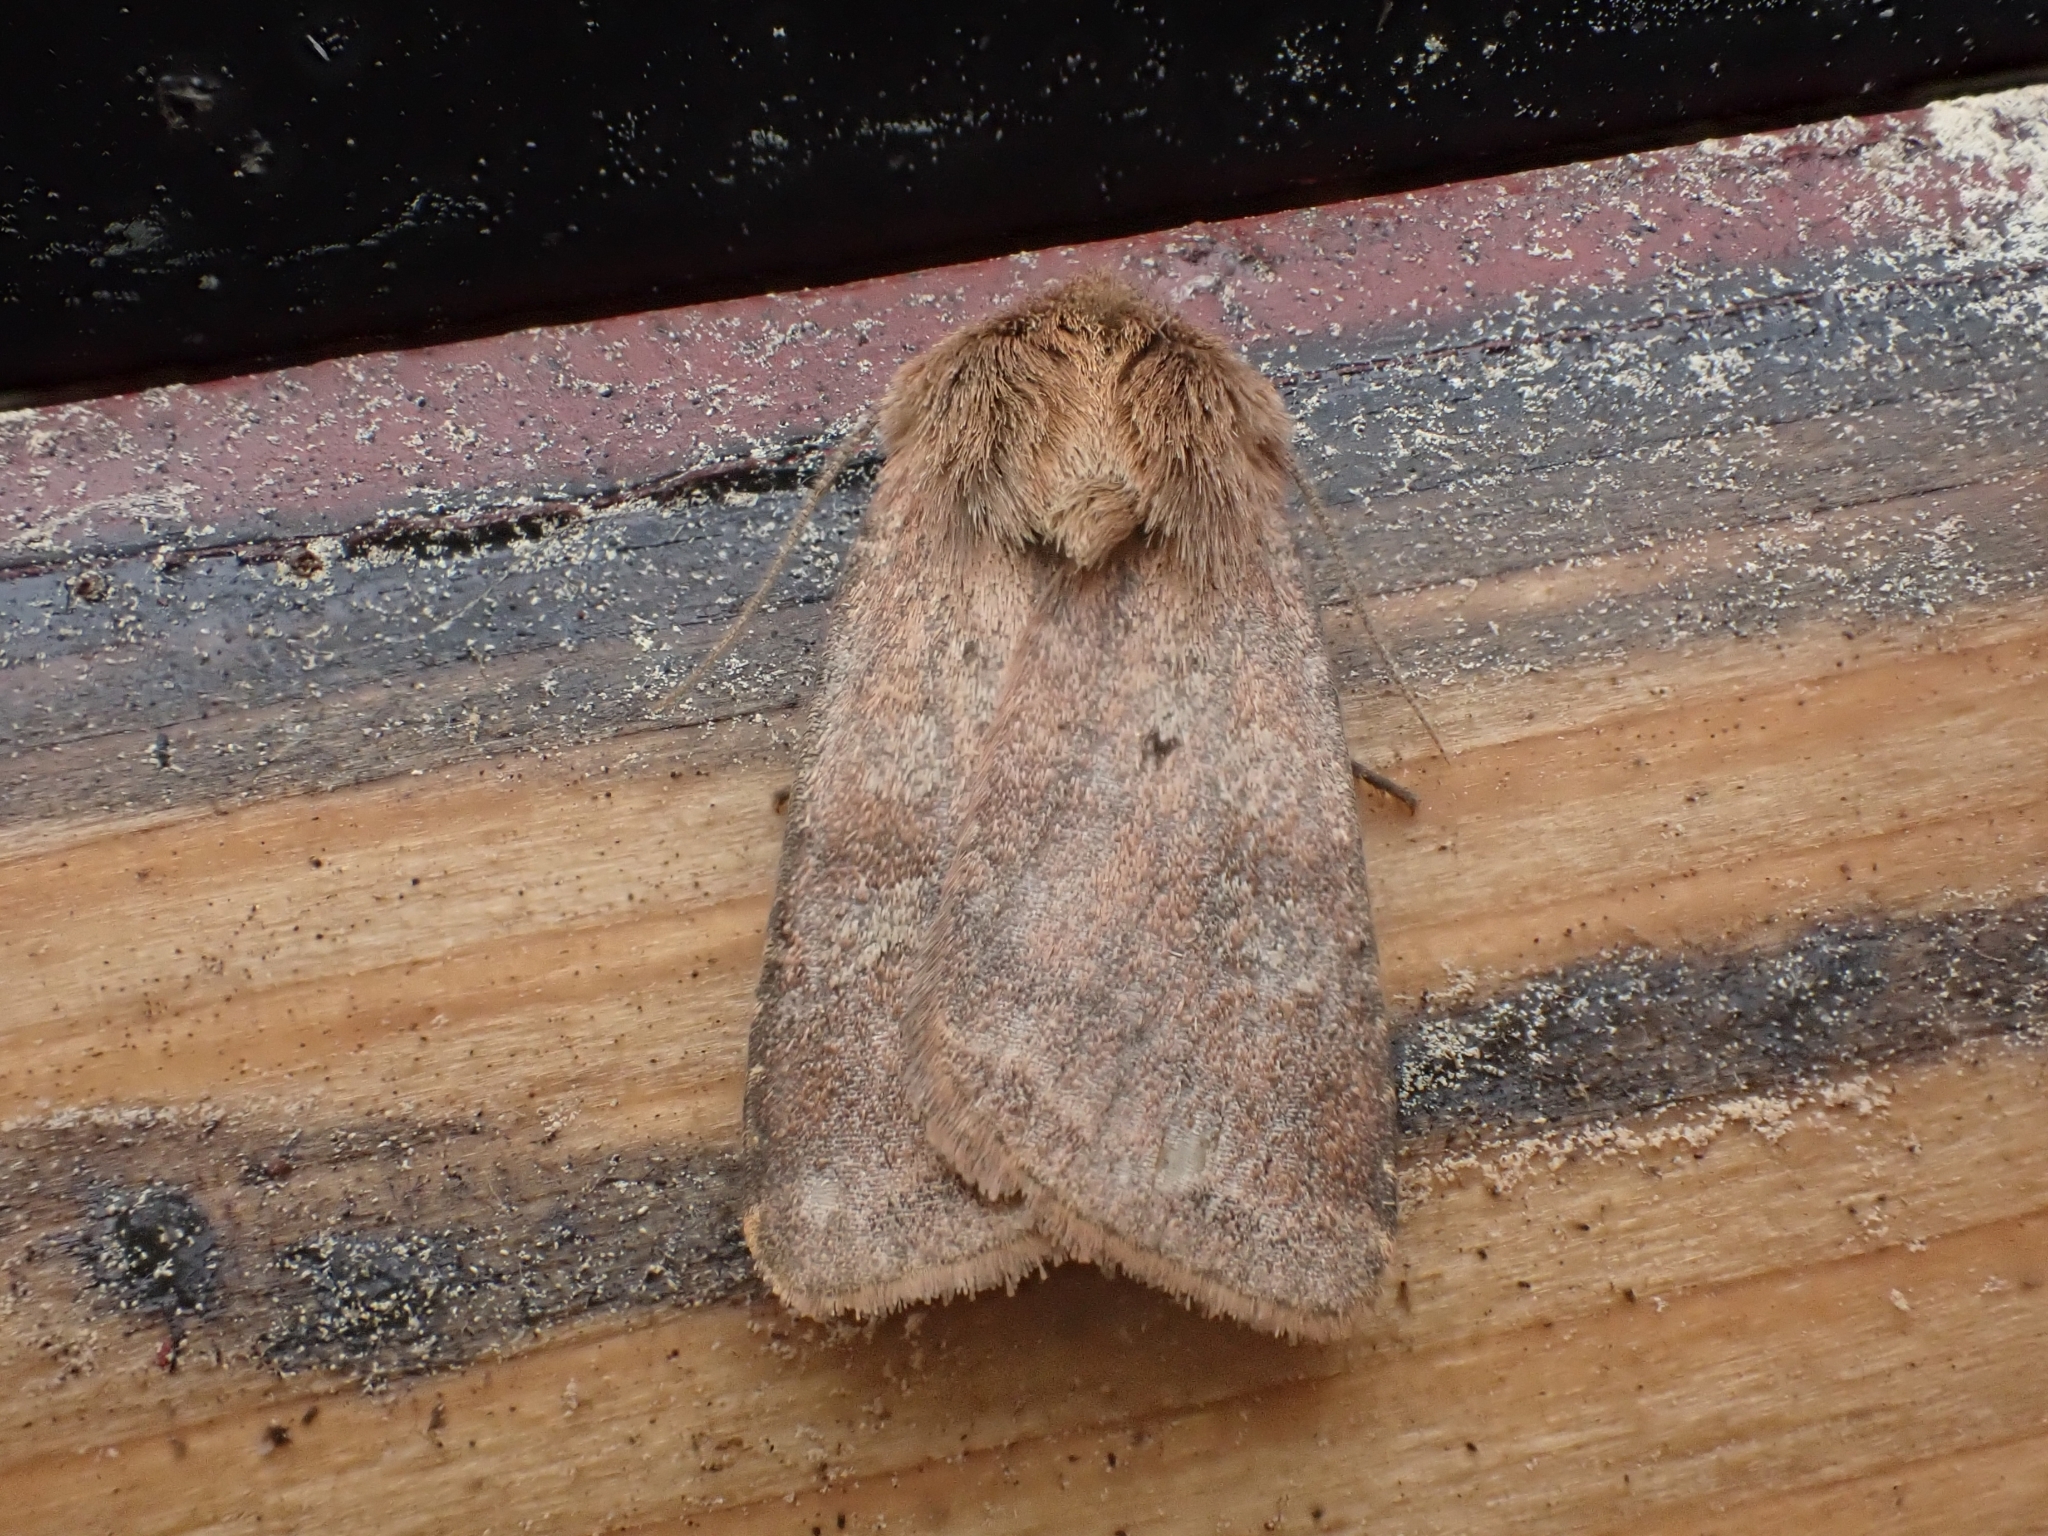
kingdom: Animalia
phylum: Arthropoda
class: Insecta
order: Lepidoptera
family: Noctuidae
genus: Diarsia
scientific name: Diarsia rubi
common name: Small square-spot
